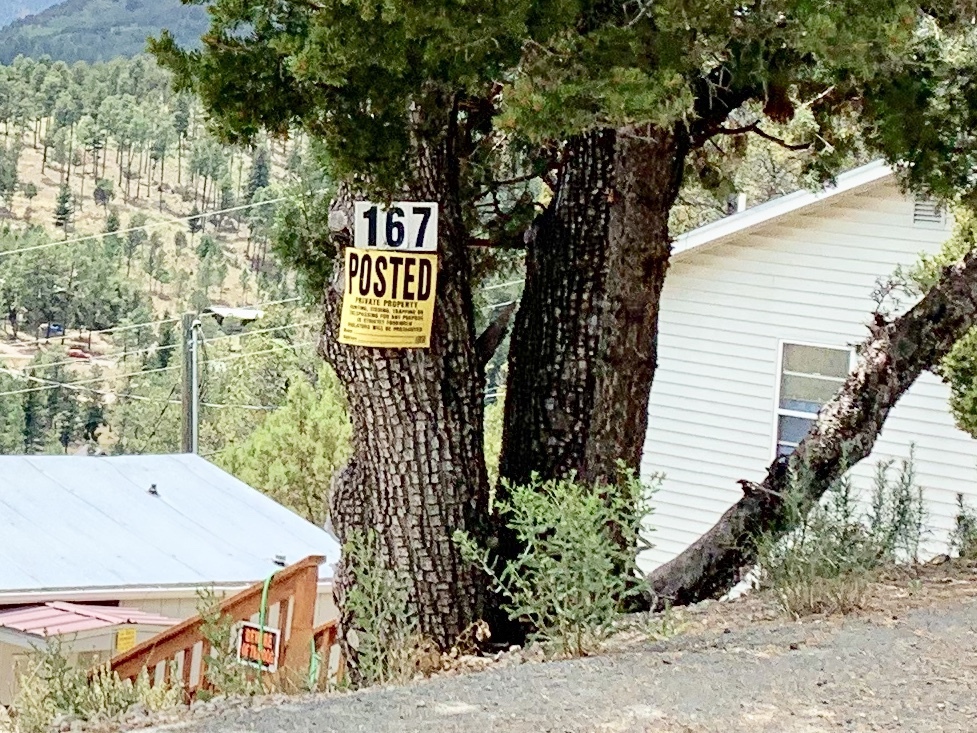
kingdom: Plantae
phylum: Tracheophyta
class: Pinopsida
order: Pinales
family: Cupressaceae
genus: Juniperus
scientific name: Juniperus deppeana
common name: Alligator juniper
